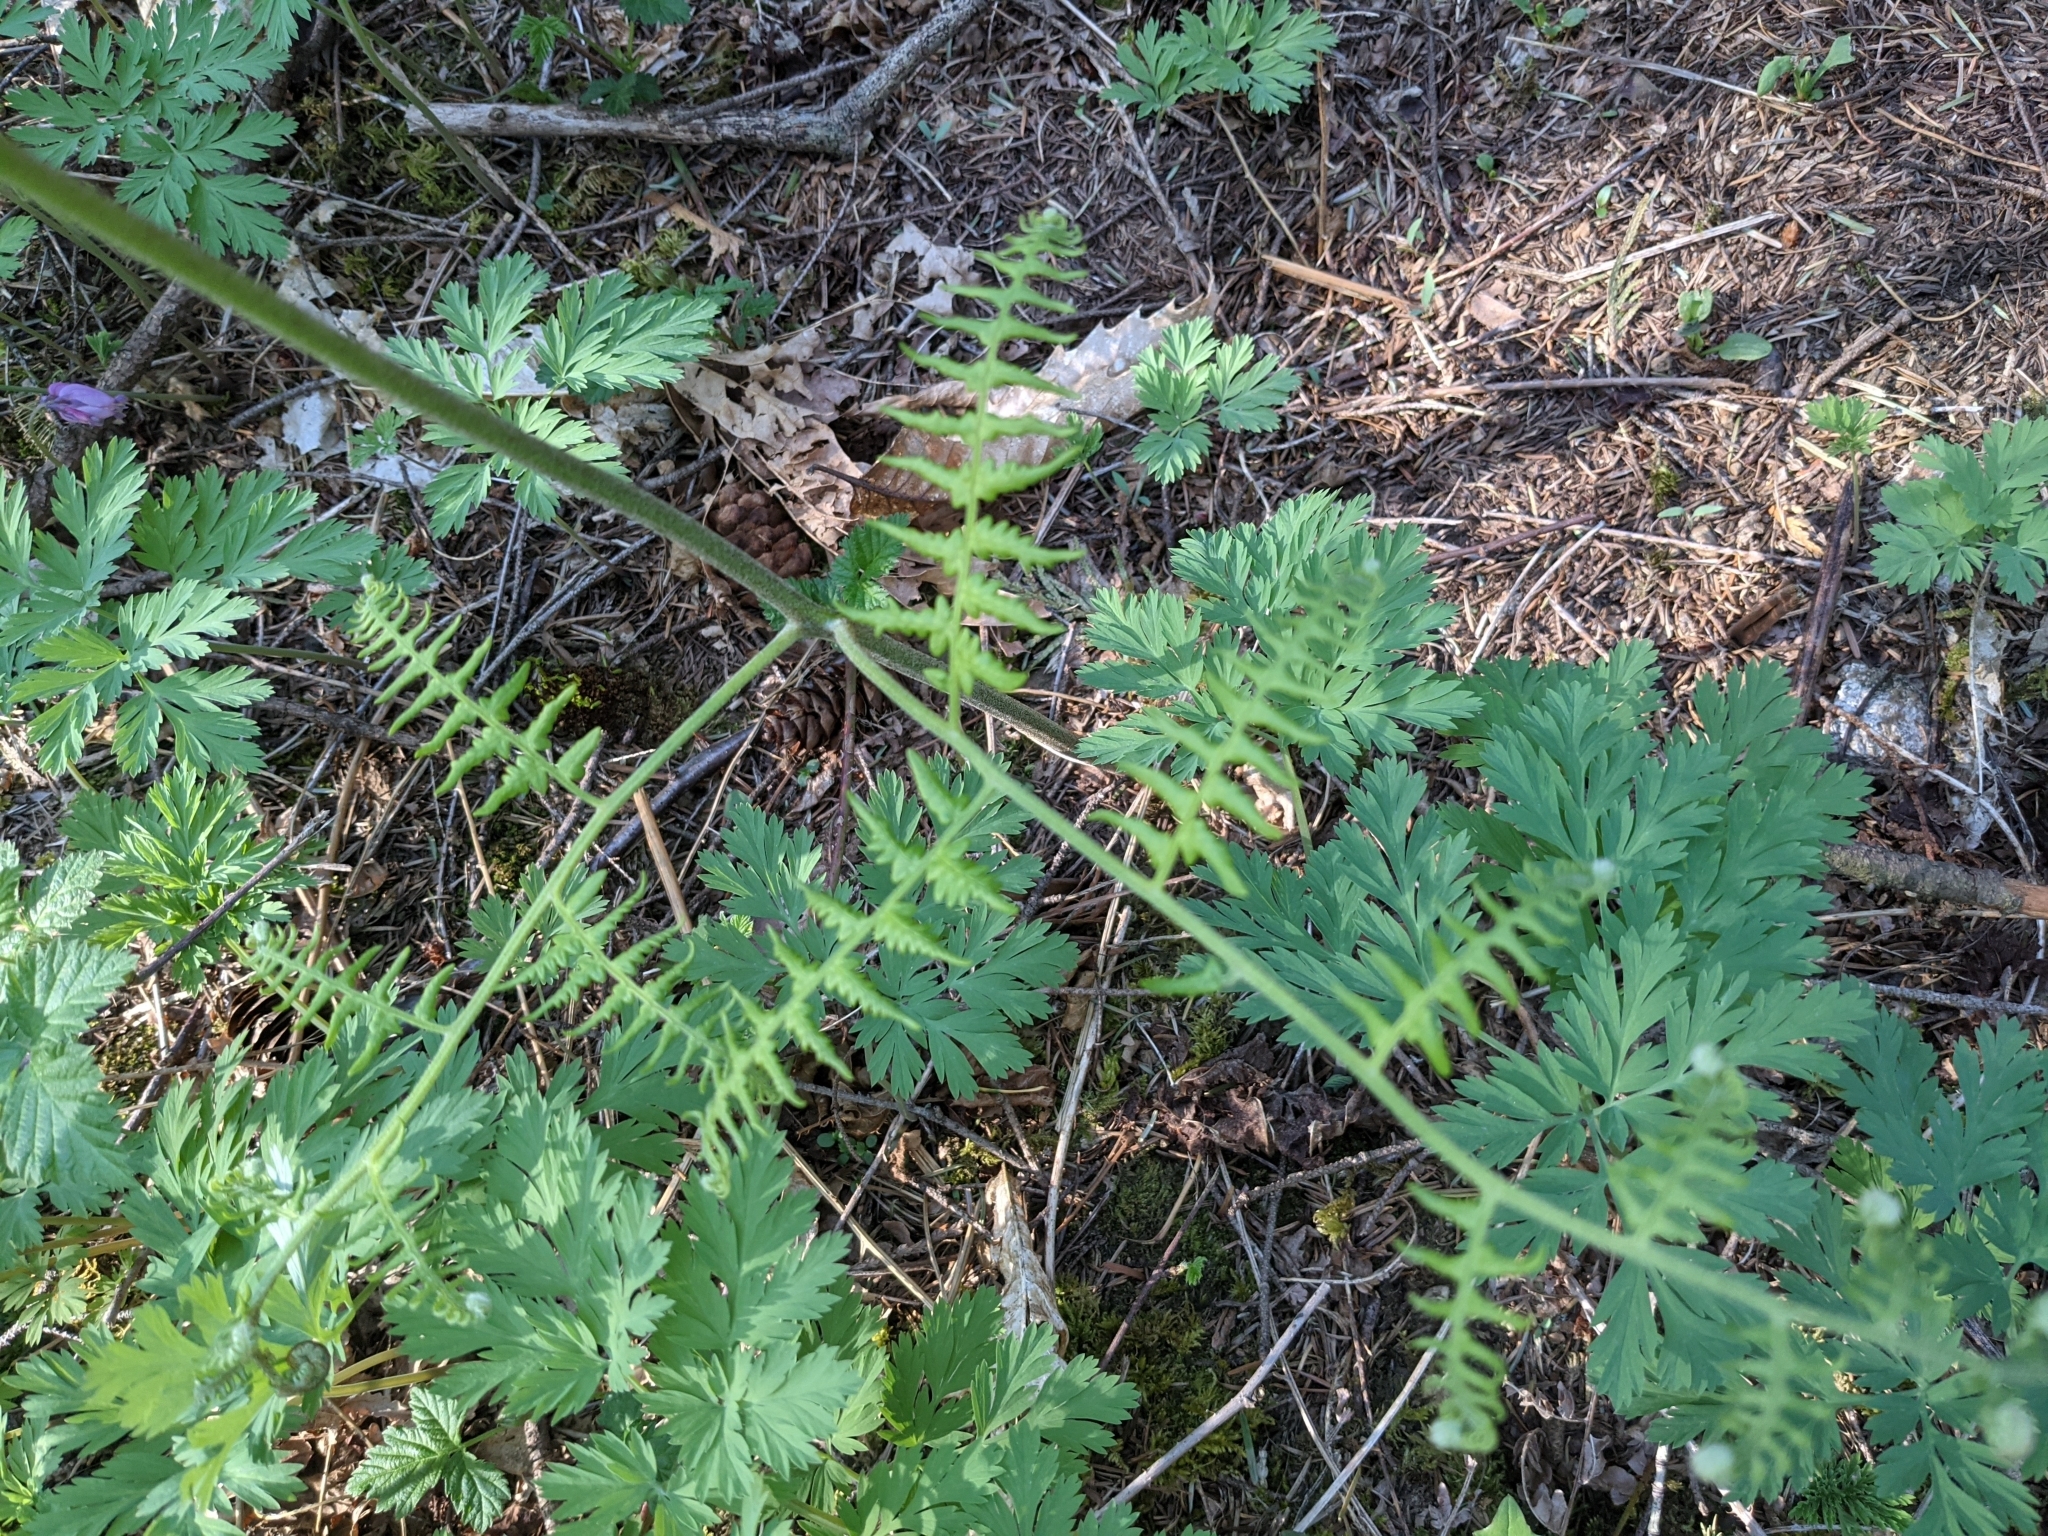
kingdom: Plantae
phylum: Tracheophyta
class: Polypodiopsida
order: Polypodiales
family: Dennstaedtiaceae
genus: Pteridium
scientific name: Pteridium aquilinum
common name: Bracken
